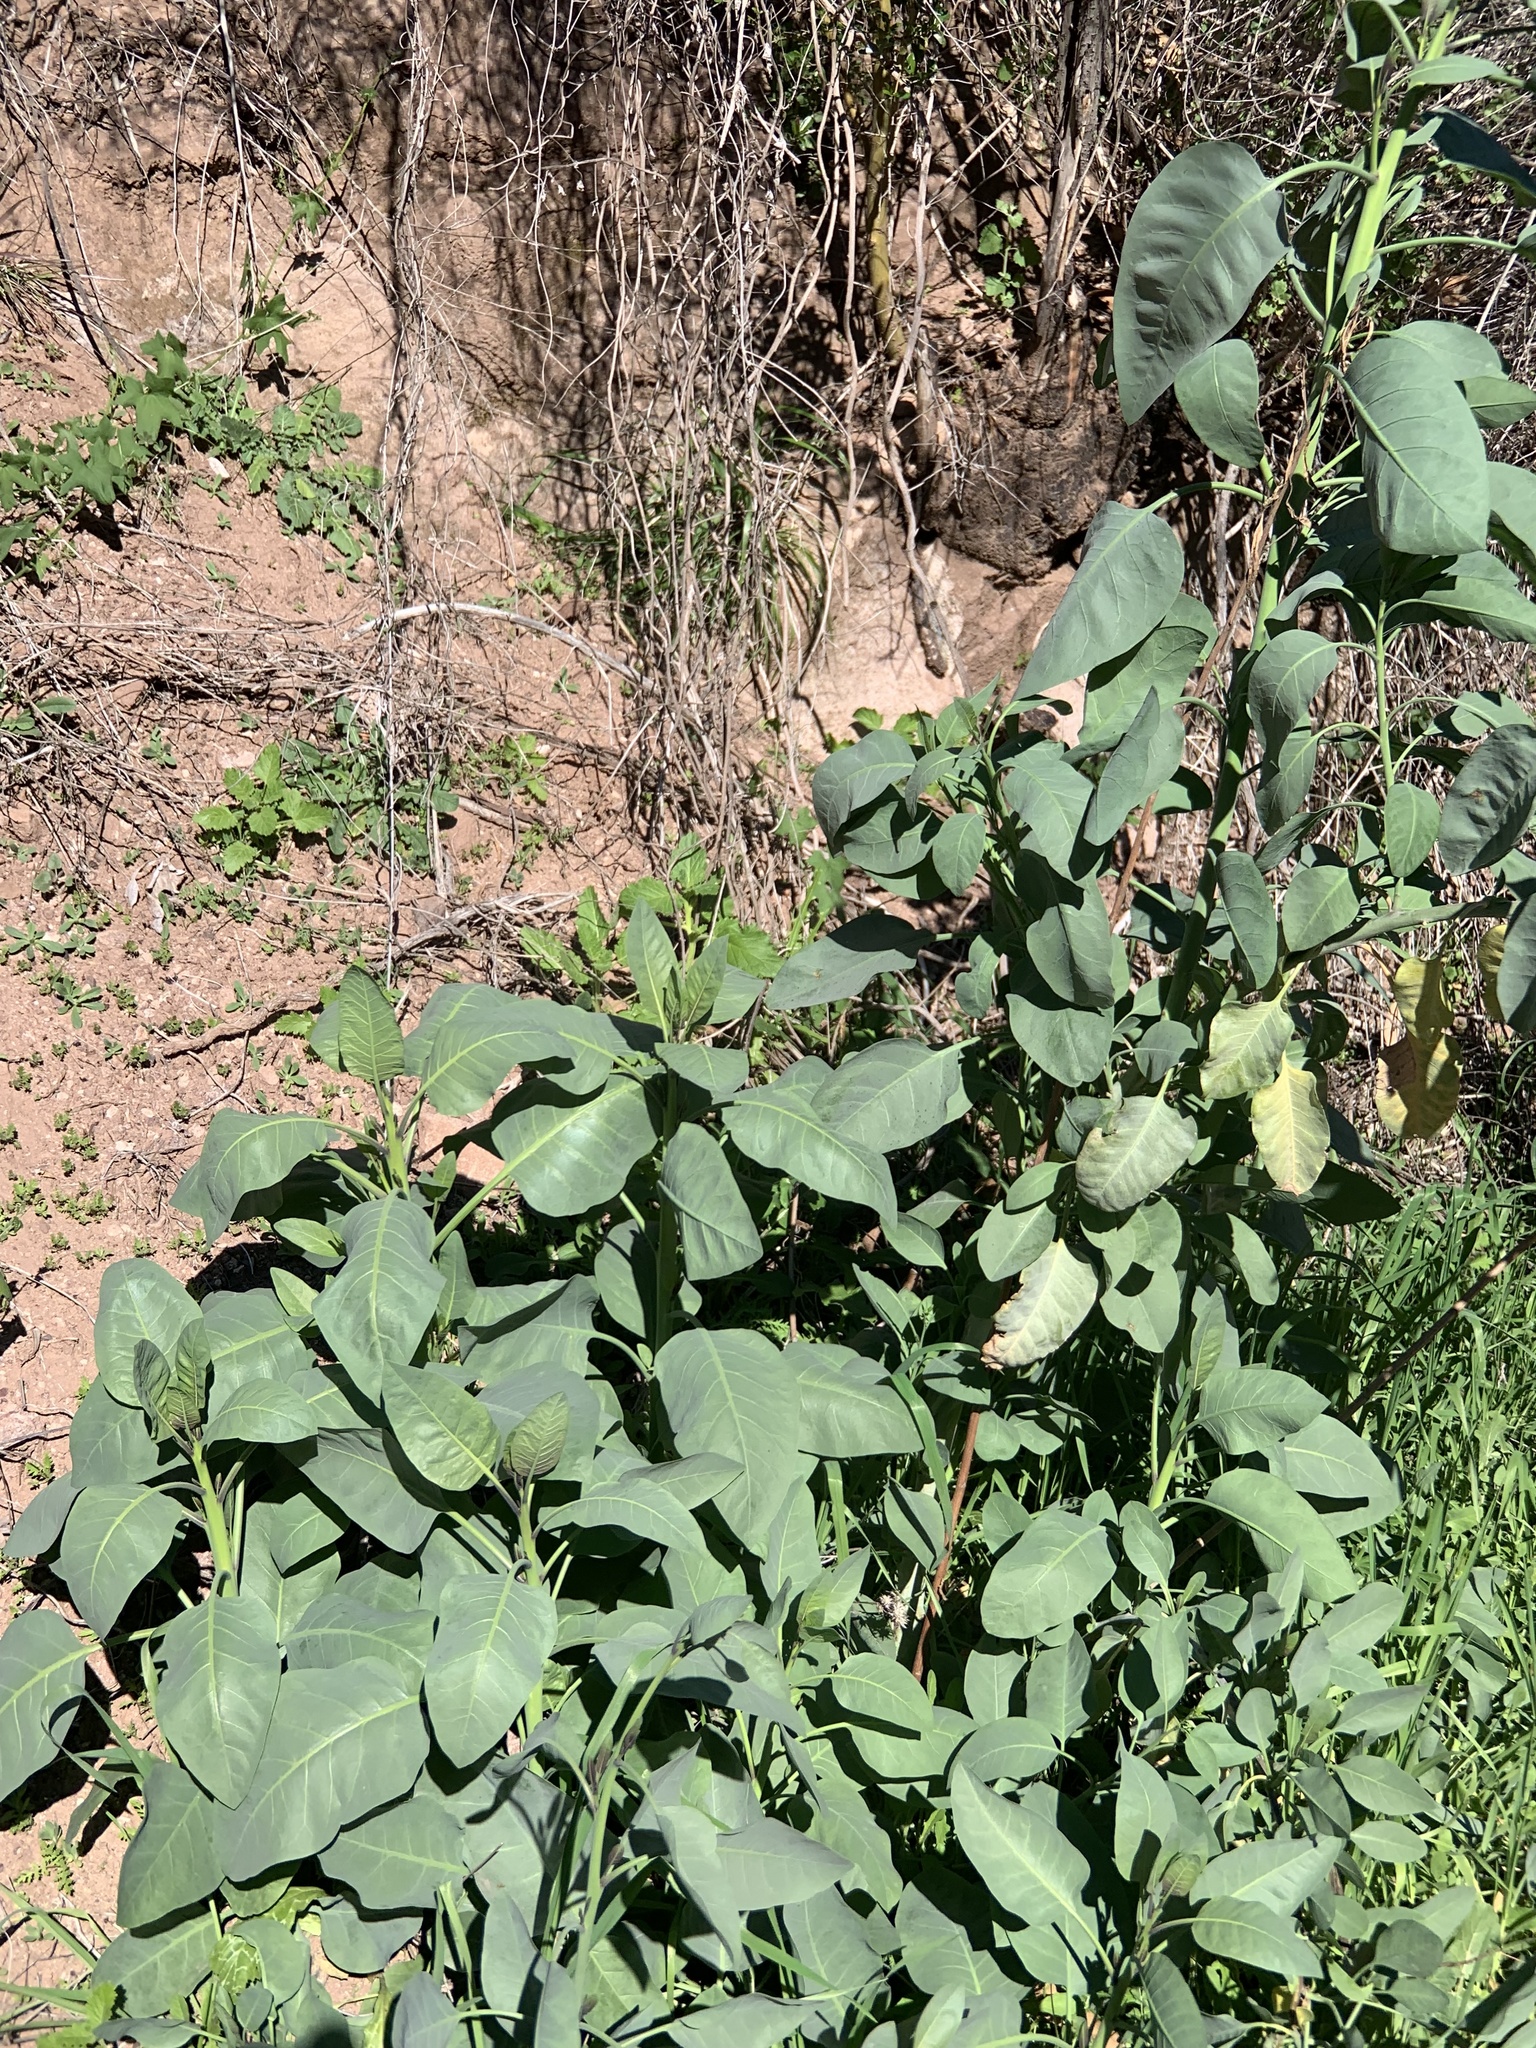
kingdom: Plantae
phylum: Tracheophyta
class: Magnoliopsida
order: Solanales
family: Solanaceae
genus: Nicotiana
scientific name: Nicotiana glauca
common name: Tree tobacco
